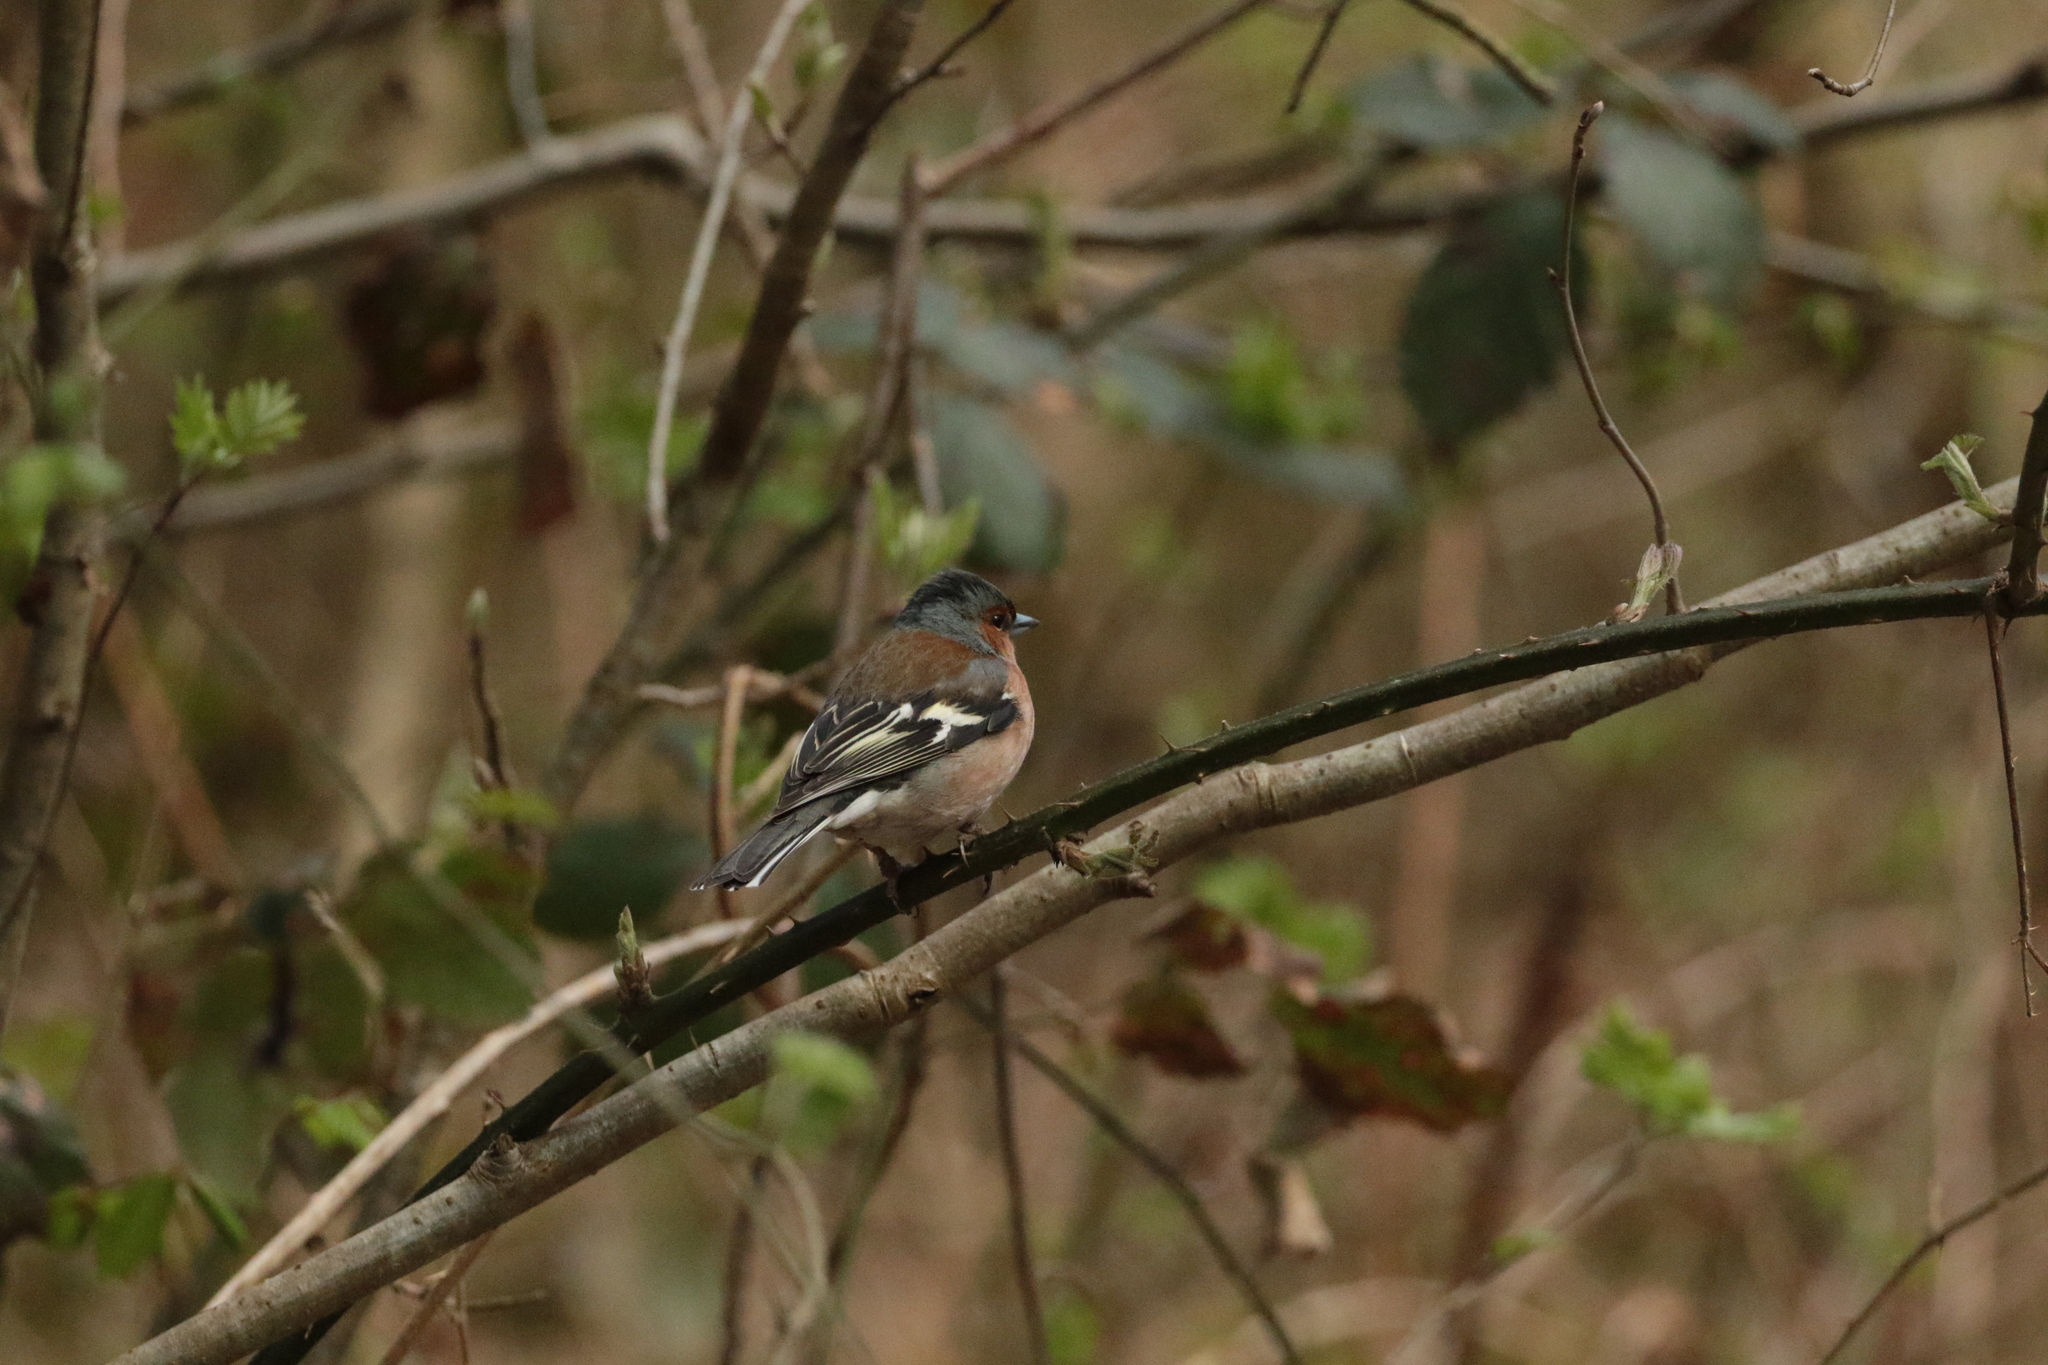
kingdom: Animalia
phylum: Chordata
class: Aves
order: Passeriformes
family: Fringillidae
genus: Fringilla
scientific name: Fringilla coelebs
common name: Common chaffinch
